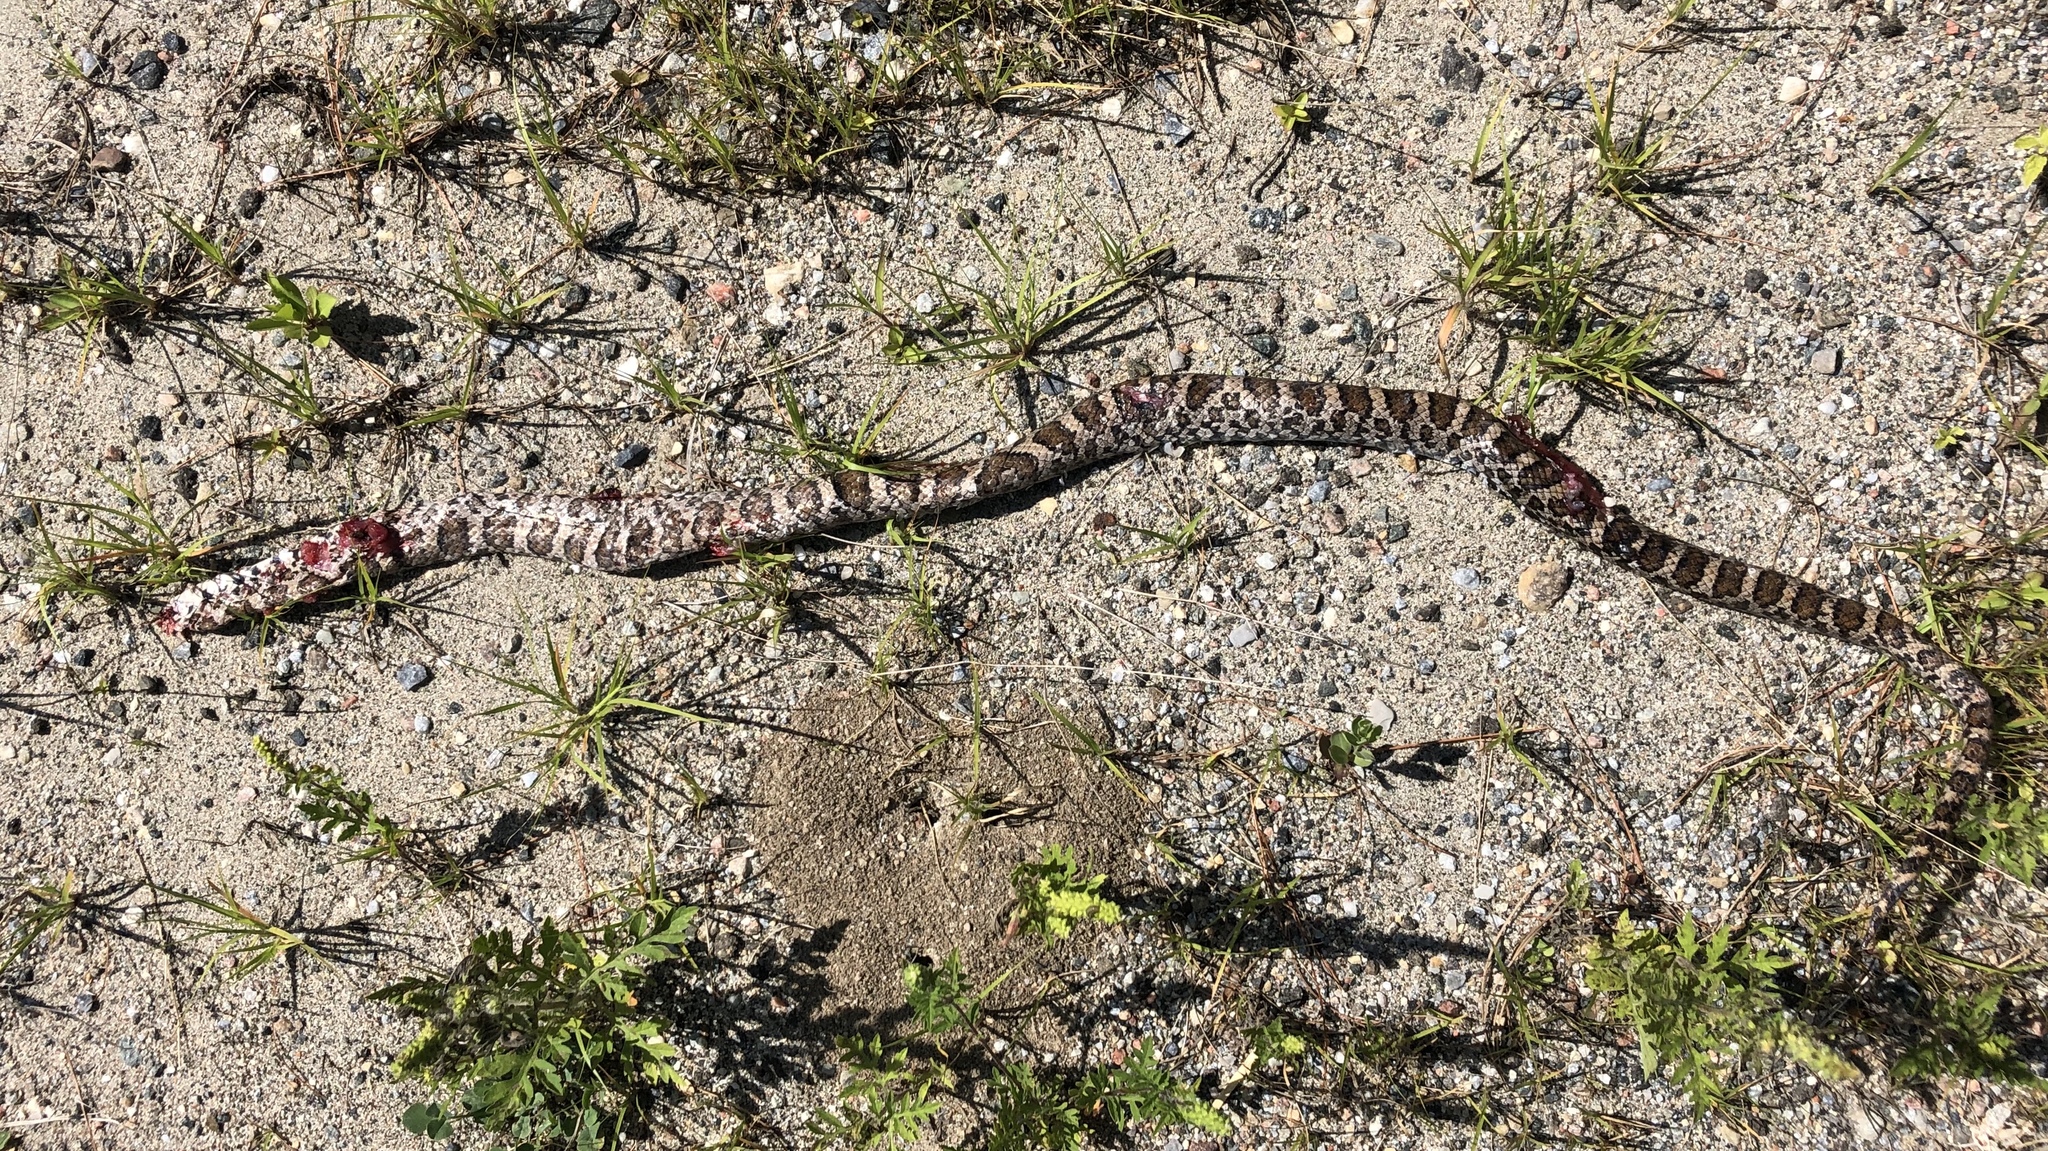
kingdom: Animalia
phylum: Chordata
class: Squamata
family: Colubridae
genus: Lampropeltis
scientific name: Lampropeltis triangulum
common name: Eastern milksnake
